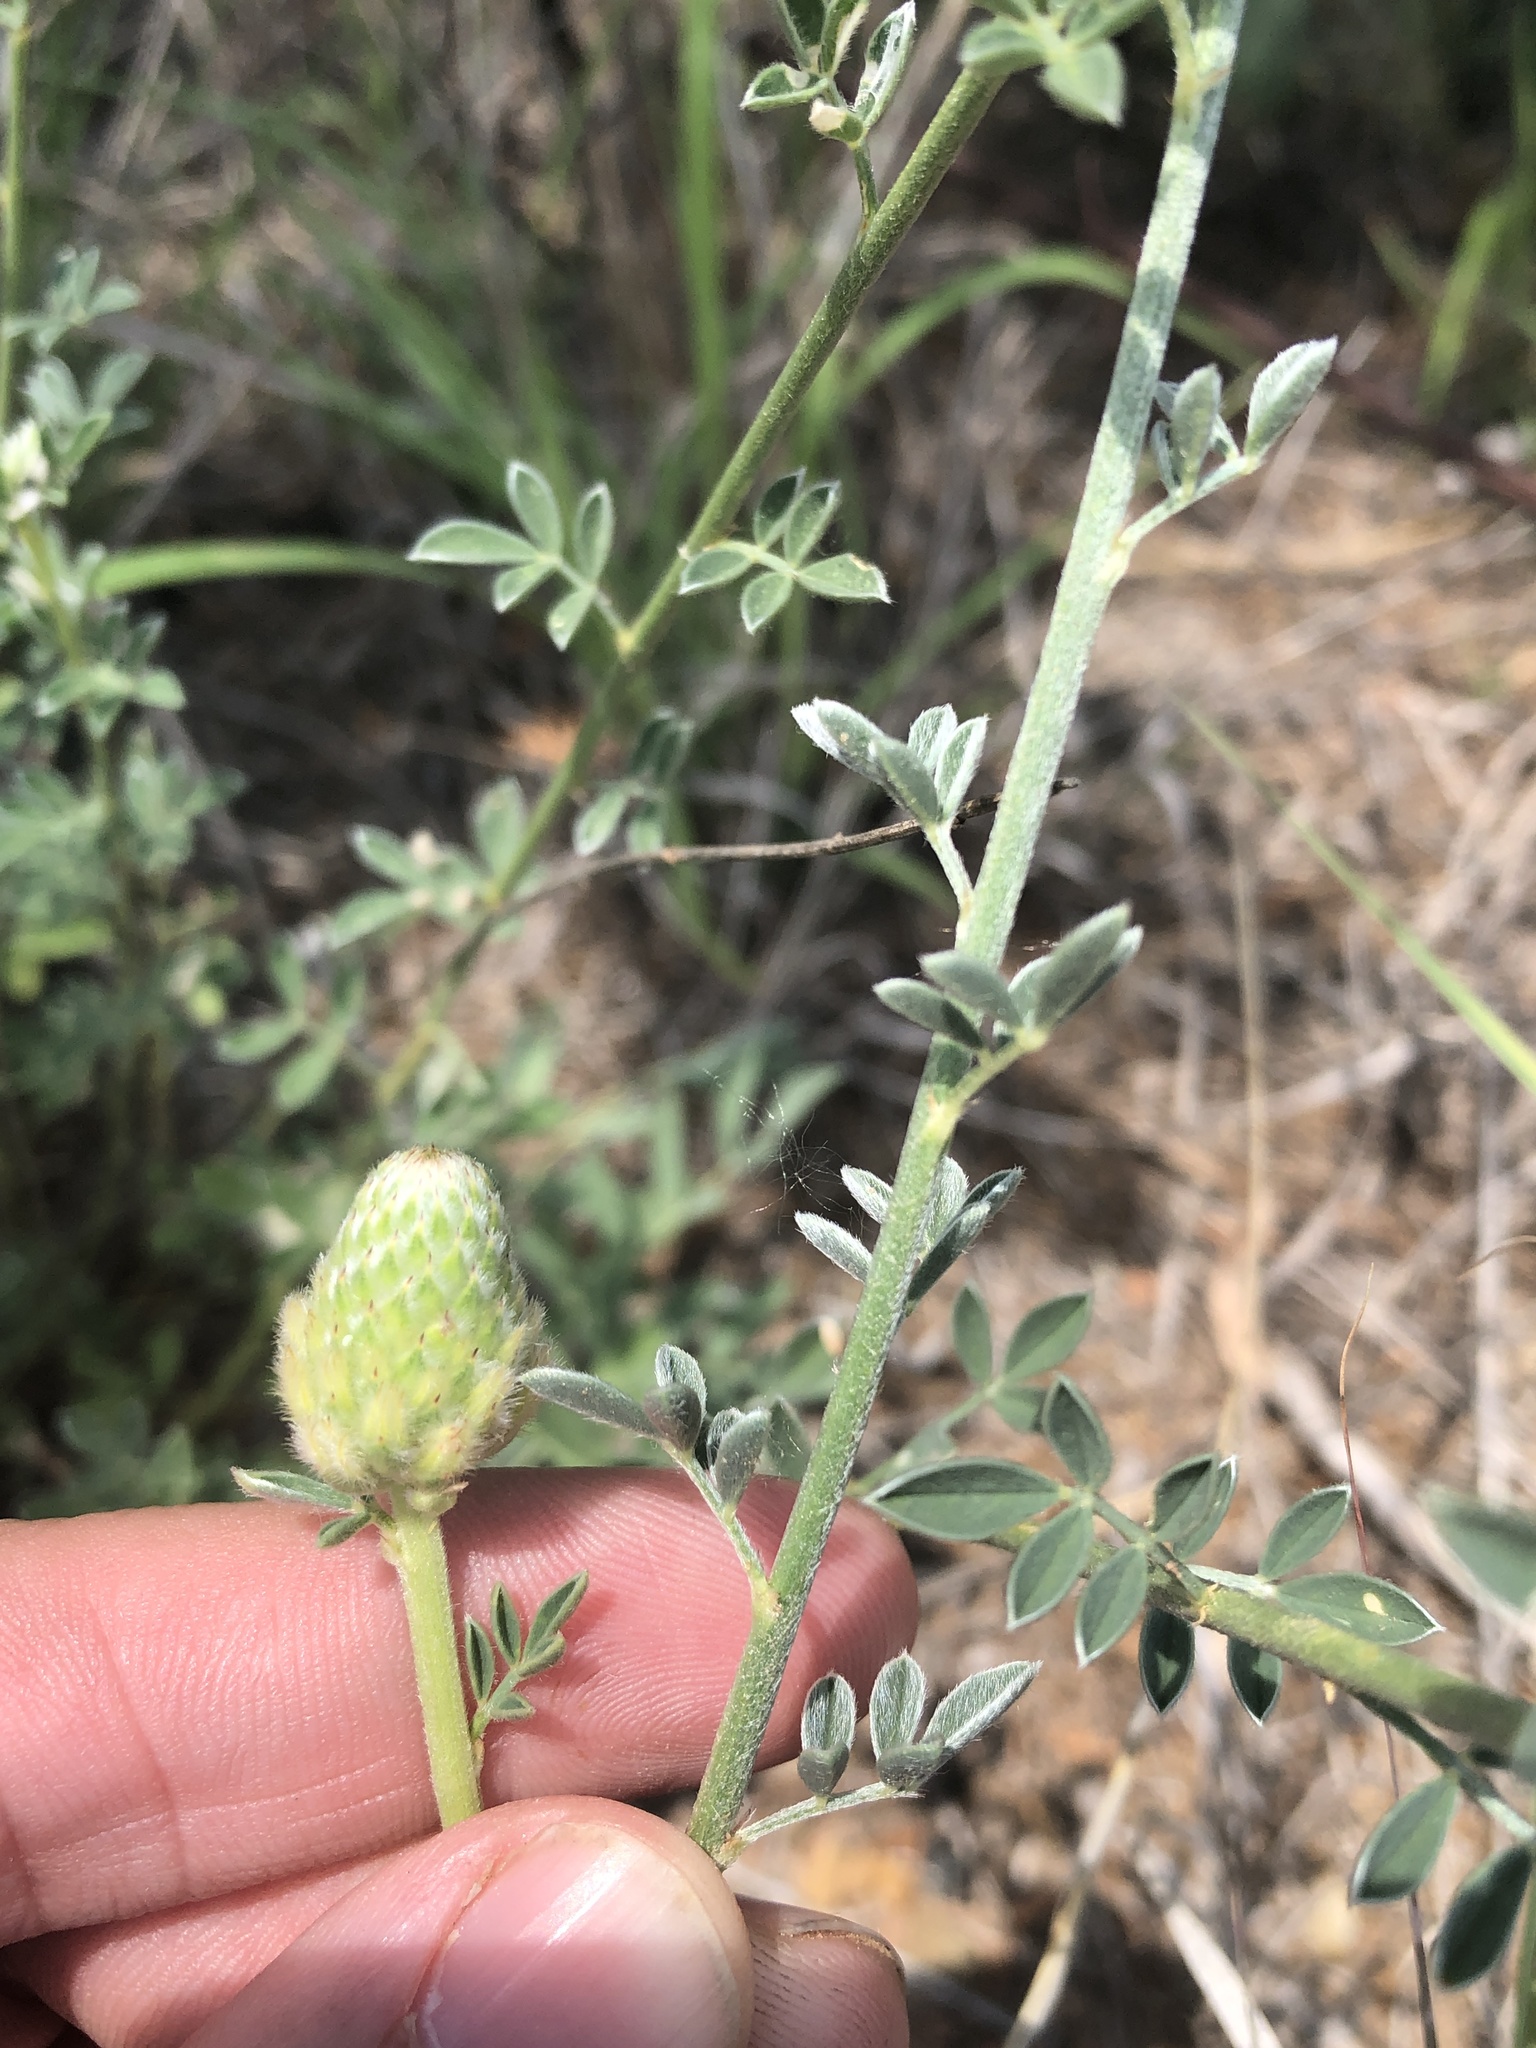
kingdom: Plantae
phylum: Tracheophyta
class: Magnoliopsida
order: Fabales
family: Fabaceae
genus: Dalea
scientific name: Dalea aurea
